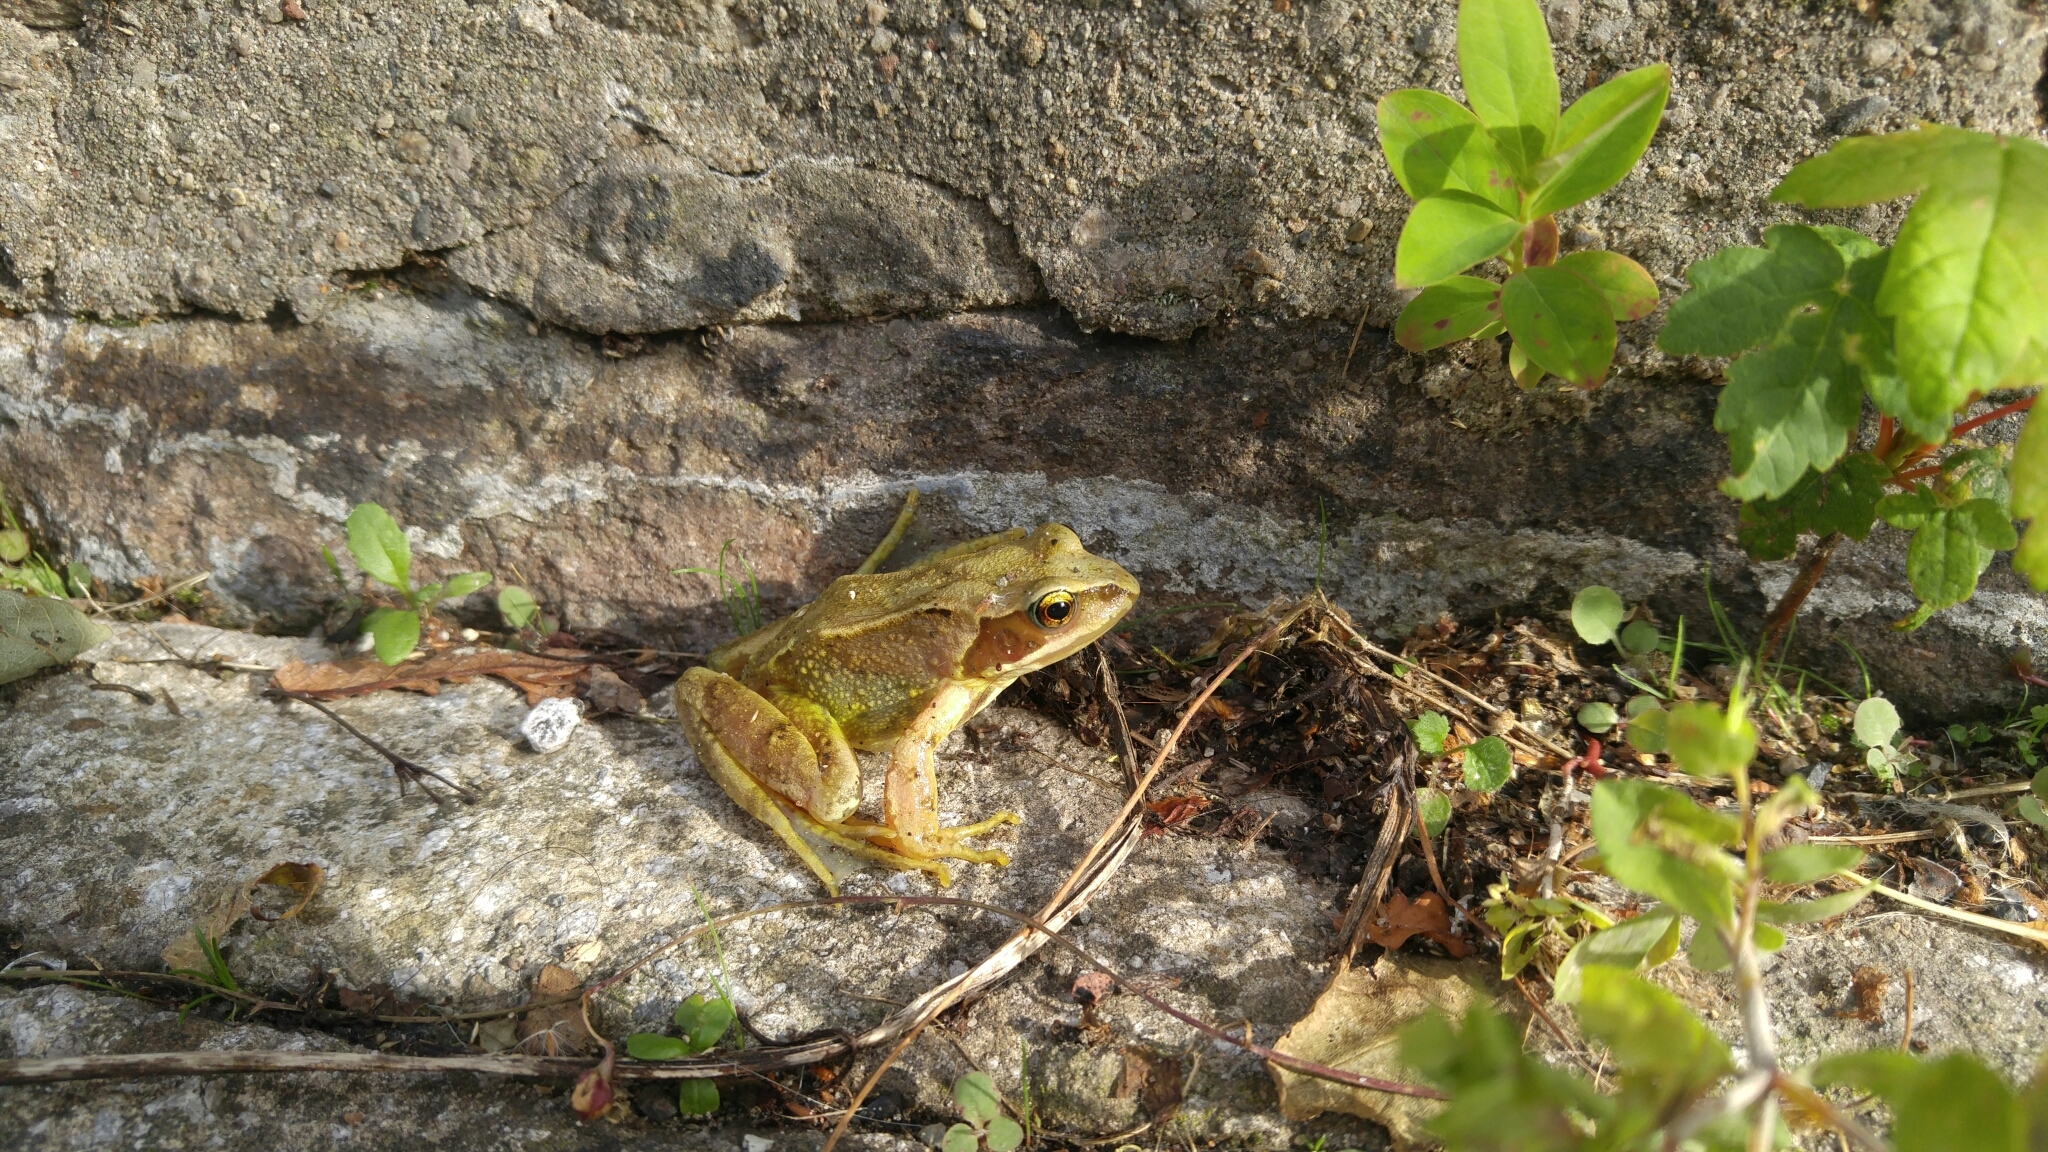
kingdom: Animalia
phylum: Chordata
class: Amphibia
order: Anura
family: Ranidae
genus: Rana
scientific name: Rana temporaria
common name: Common frog
